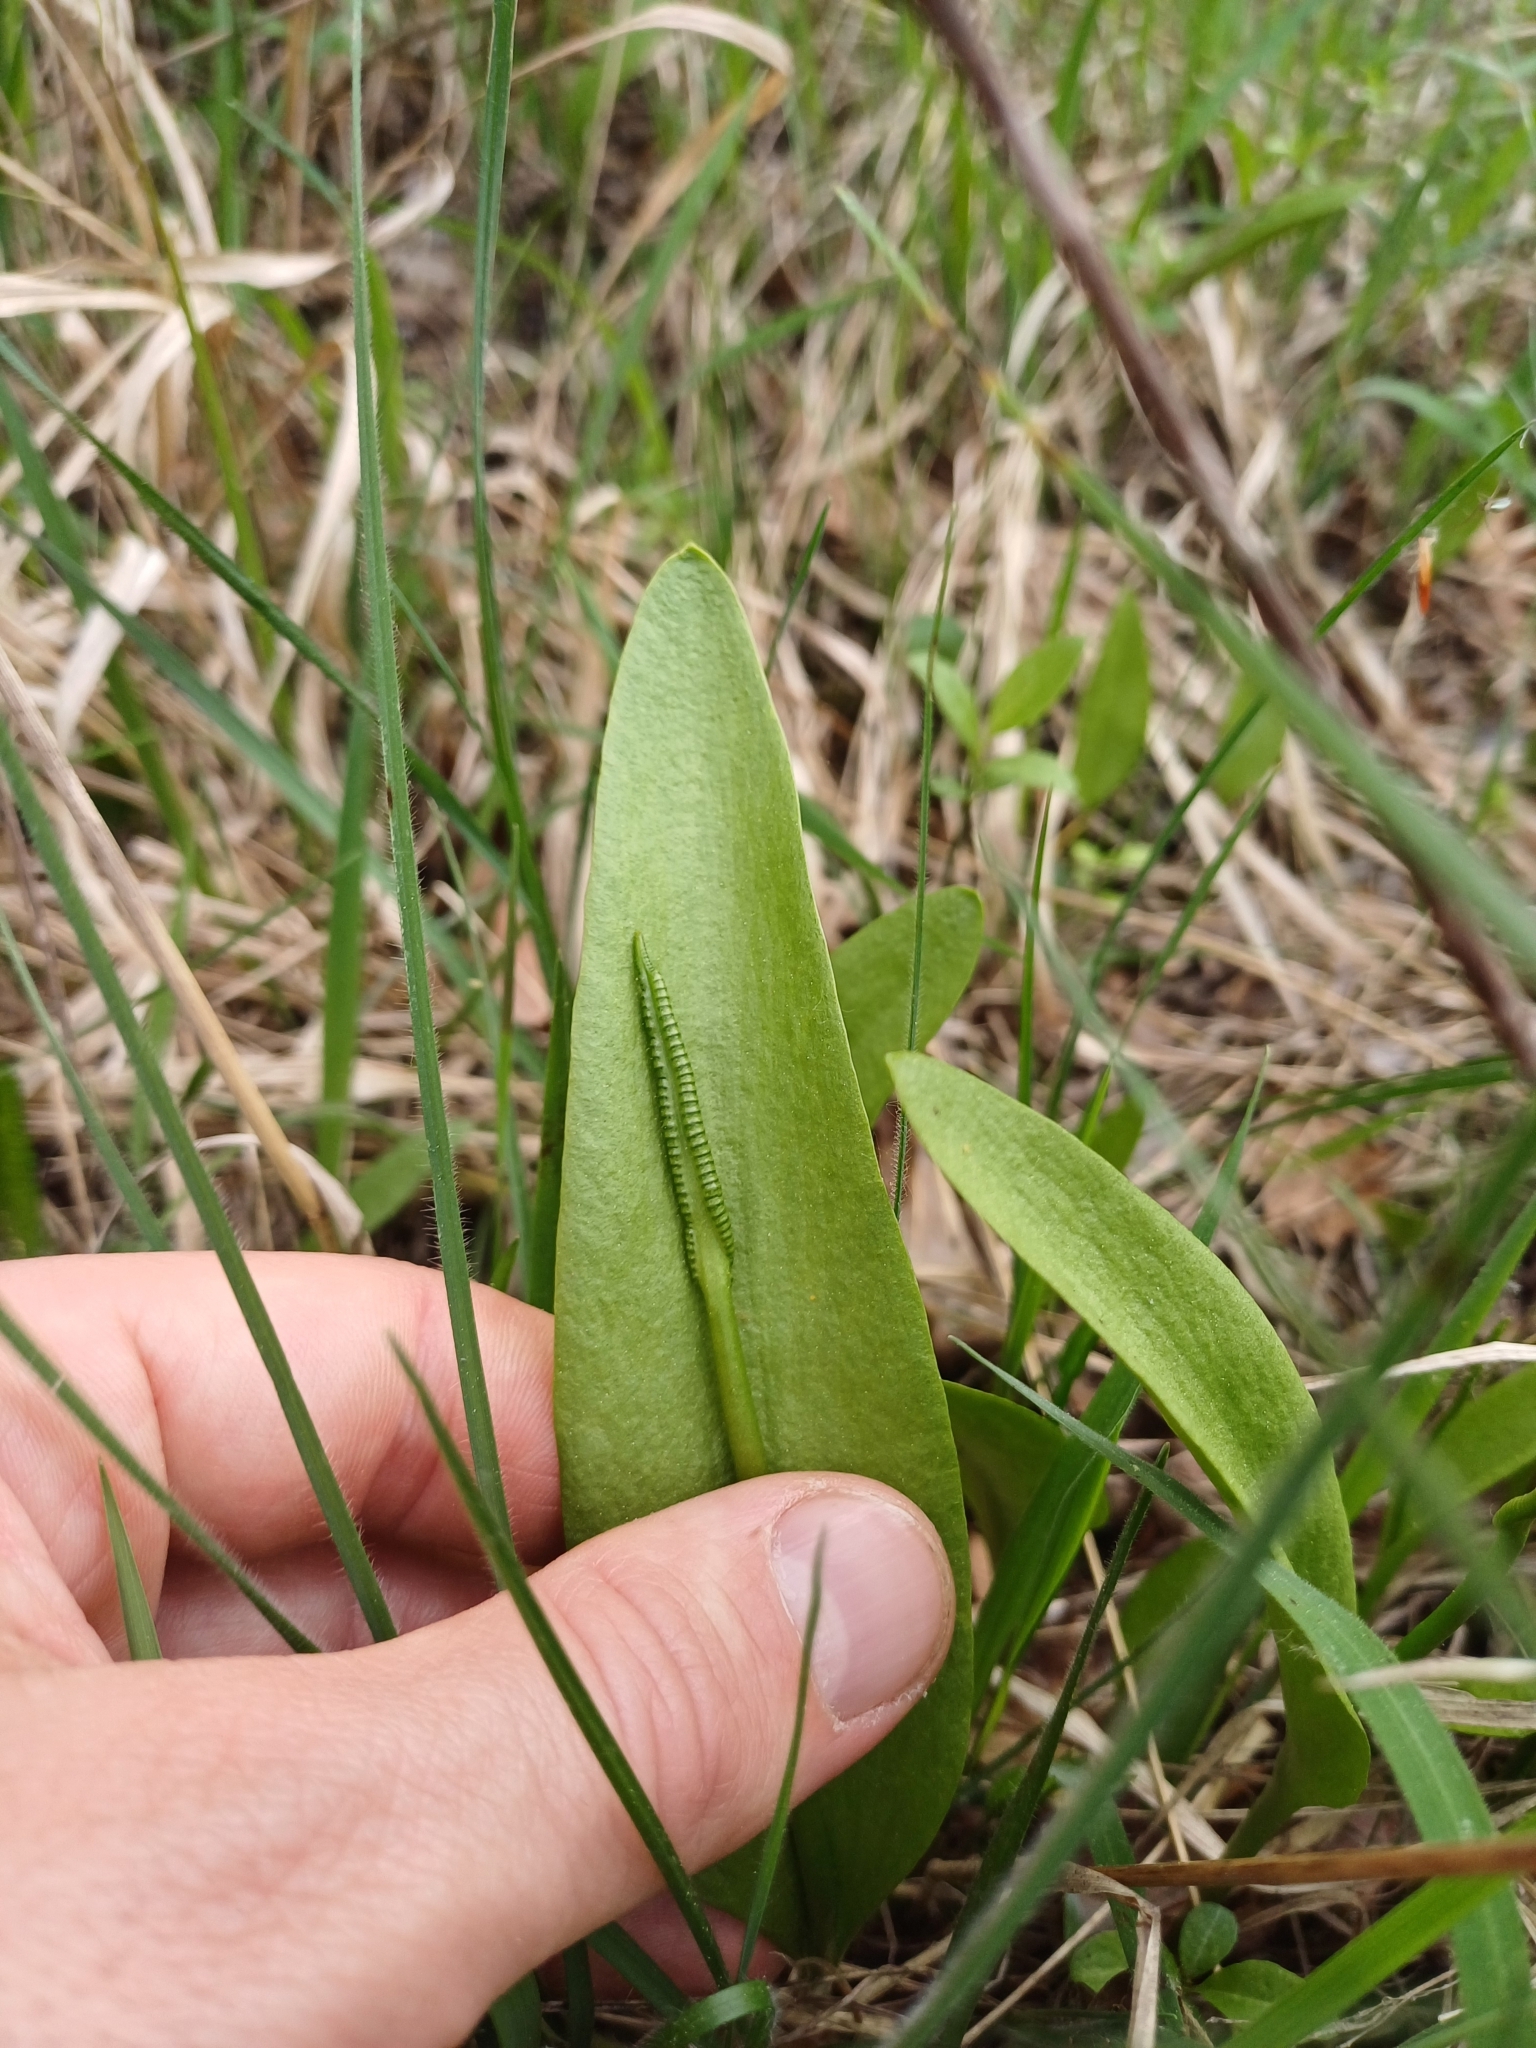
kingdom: Plantae
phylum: Tracheophyta
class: Polypodiopsida
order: Ophioglossales
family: Ophioglossaceae
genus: Ophioglossum
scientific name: Ophioglossum vulgatum
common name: Adder's-tongue
